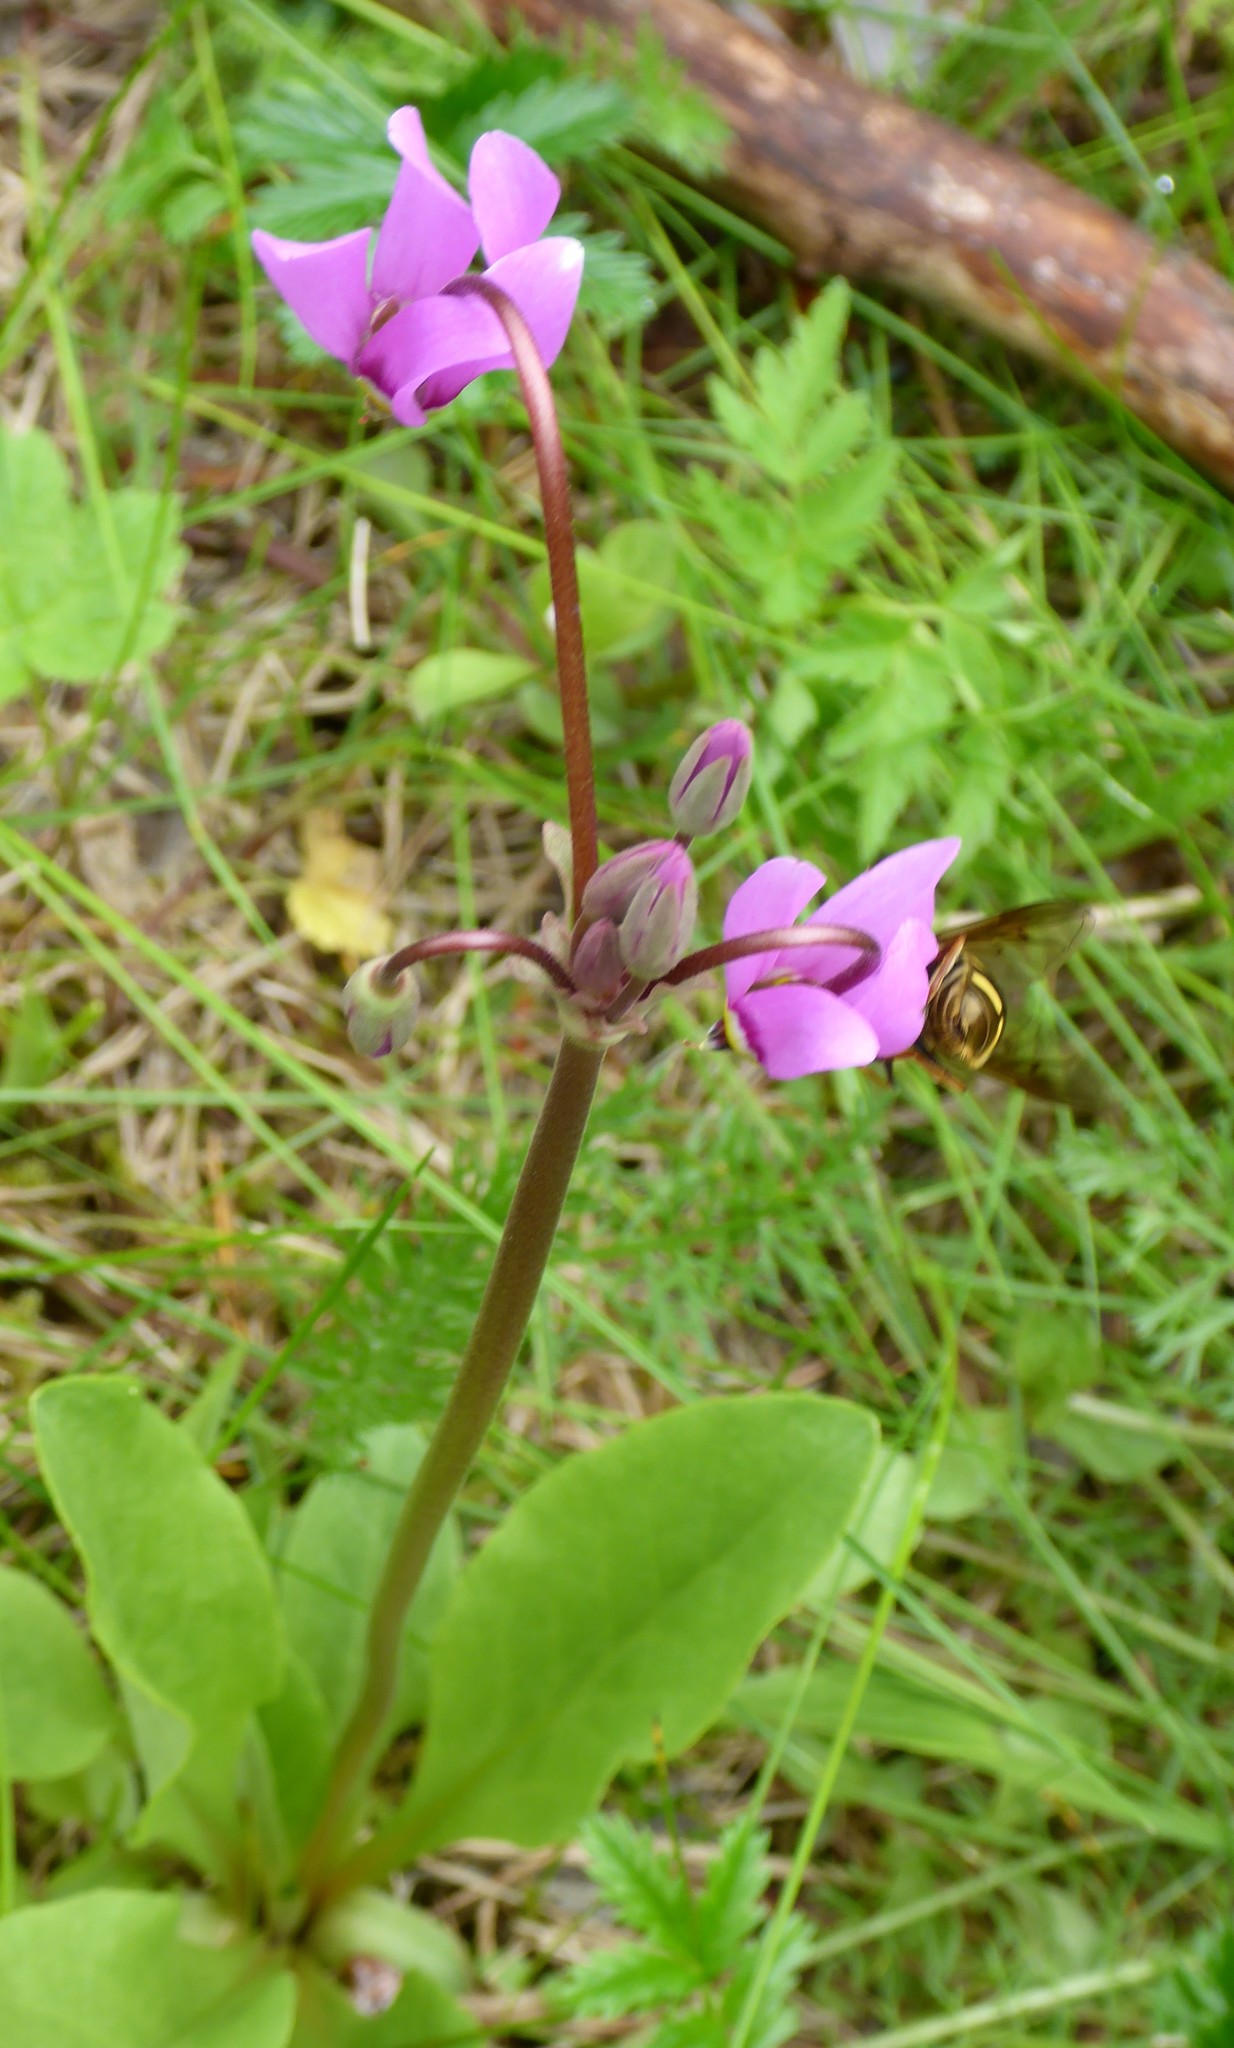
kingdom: Plantae
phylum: Tracheophyta
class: Magnoliopsida
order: Ericales
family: Primulaceae
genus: Dodecatheon
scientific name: Dodecatheon pulchellum
